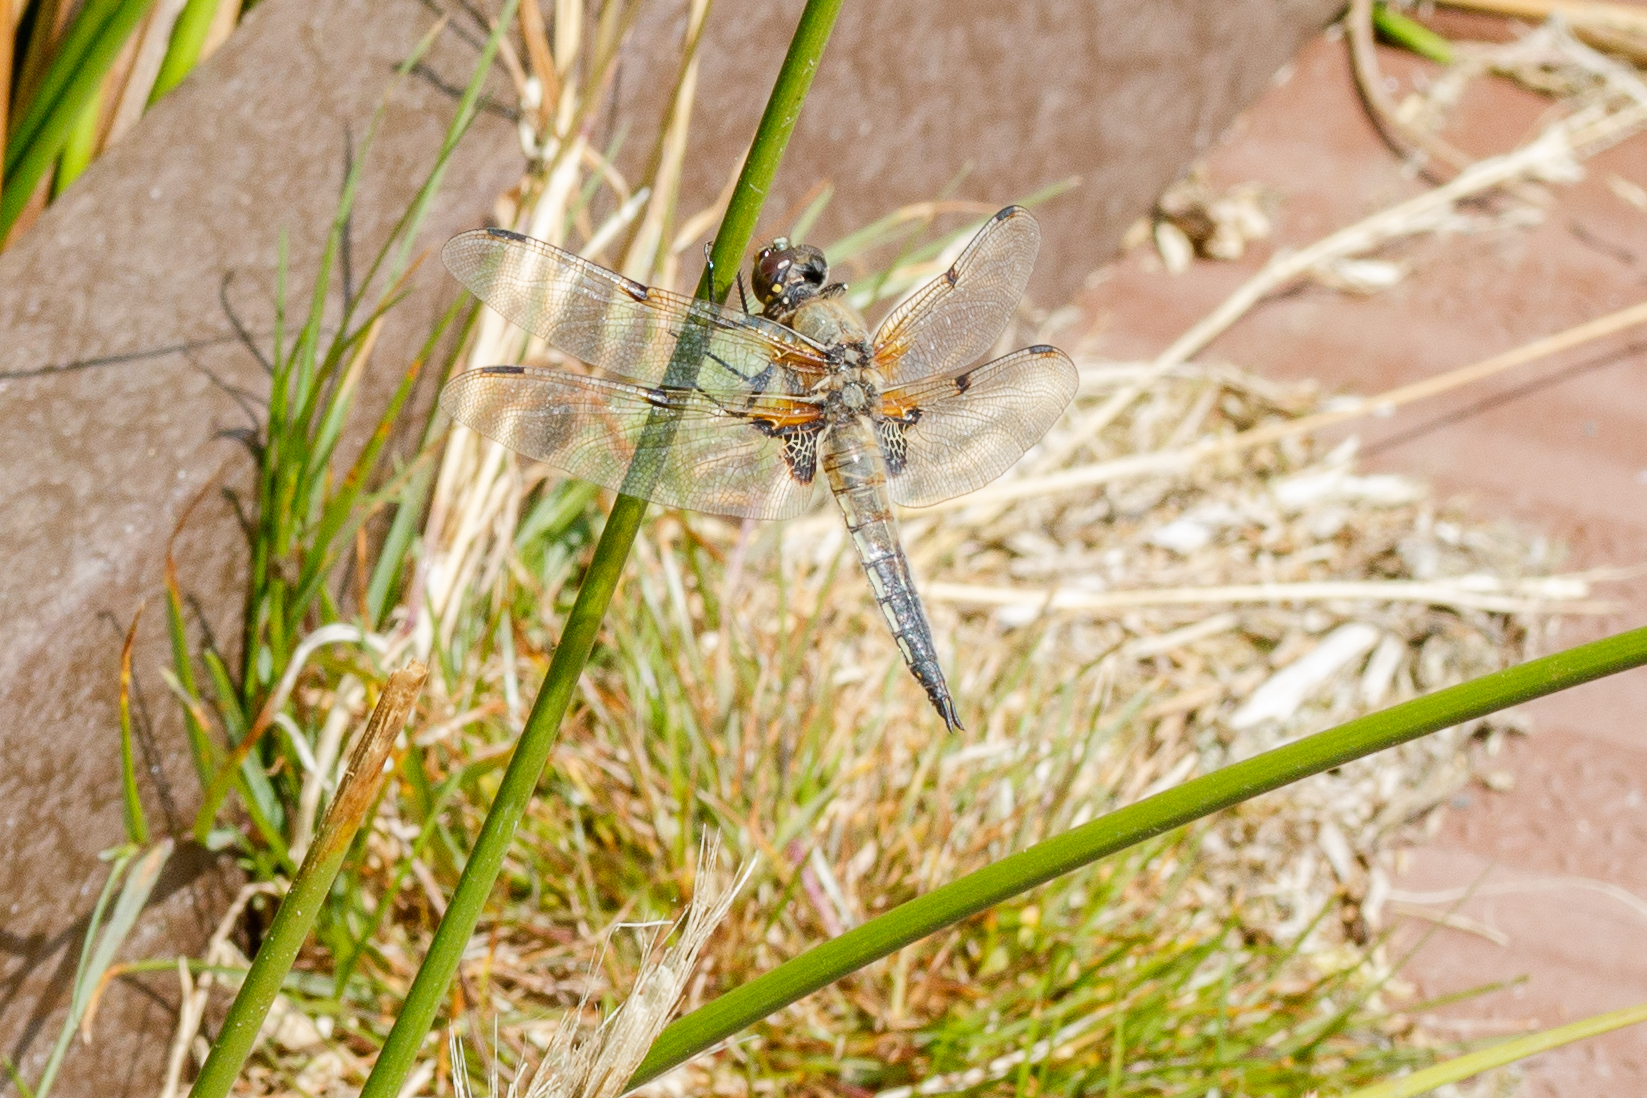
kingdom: Animalia
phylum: Arthropoda
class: Insecta
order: Odonata
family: Libellulidae
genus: Libellula
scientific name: Libellula quadrimaculata
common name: Four-spotted chaser
